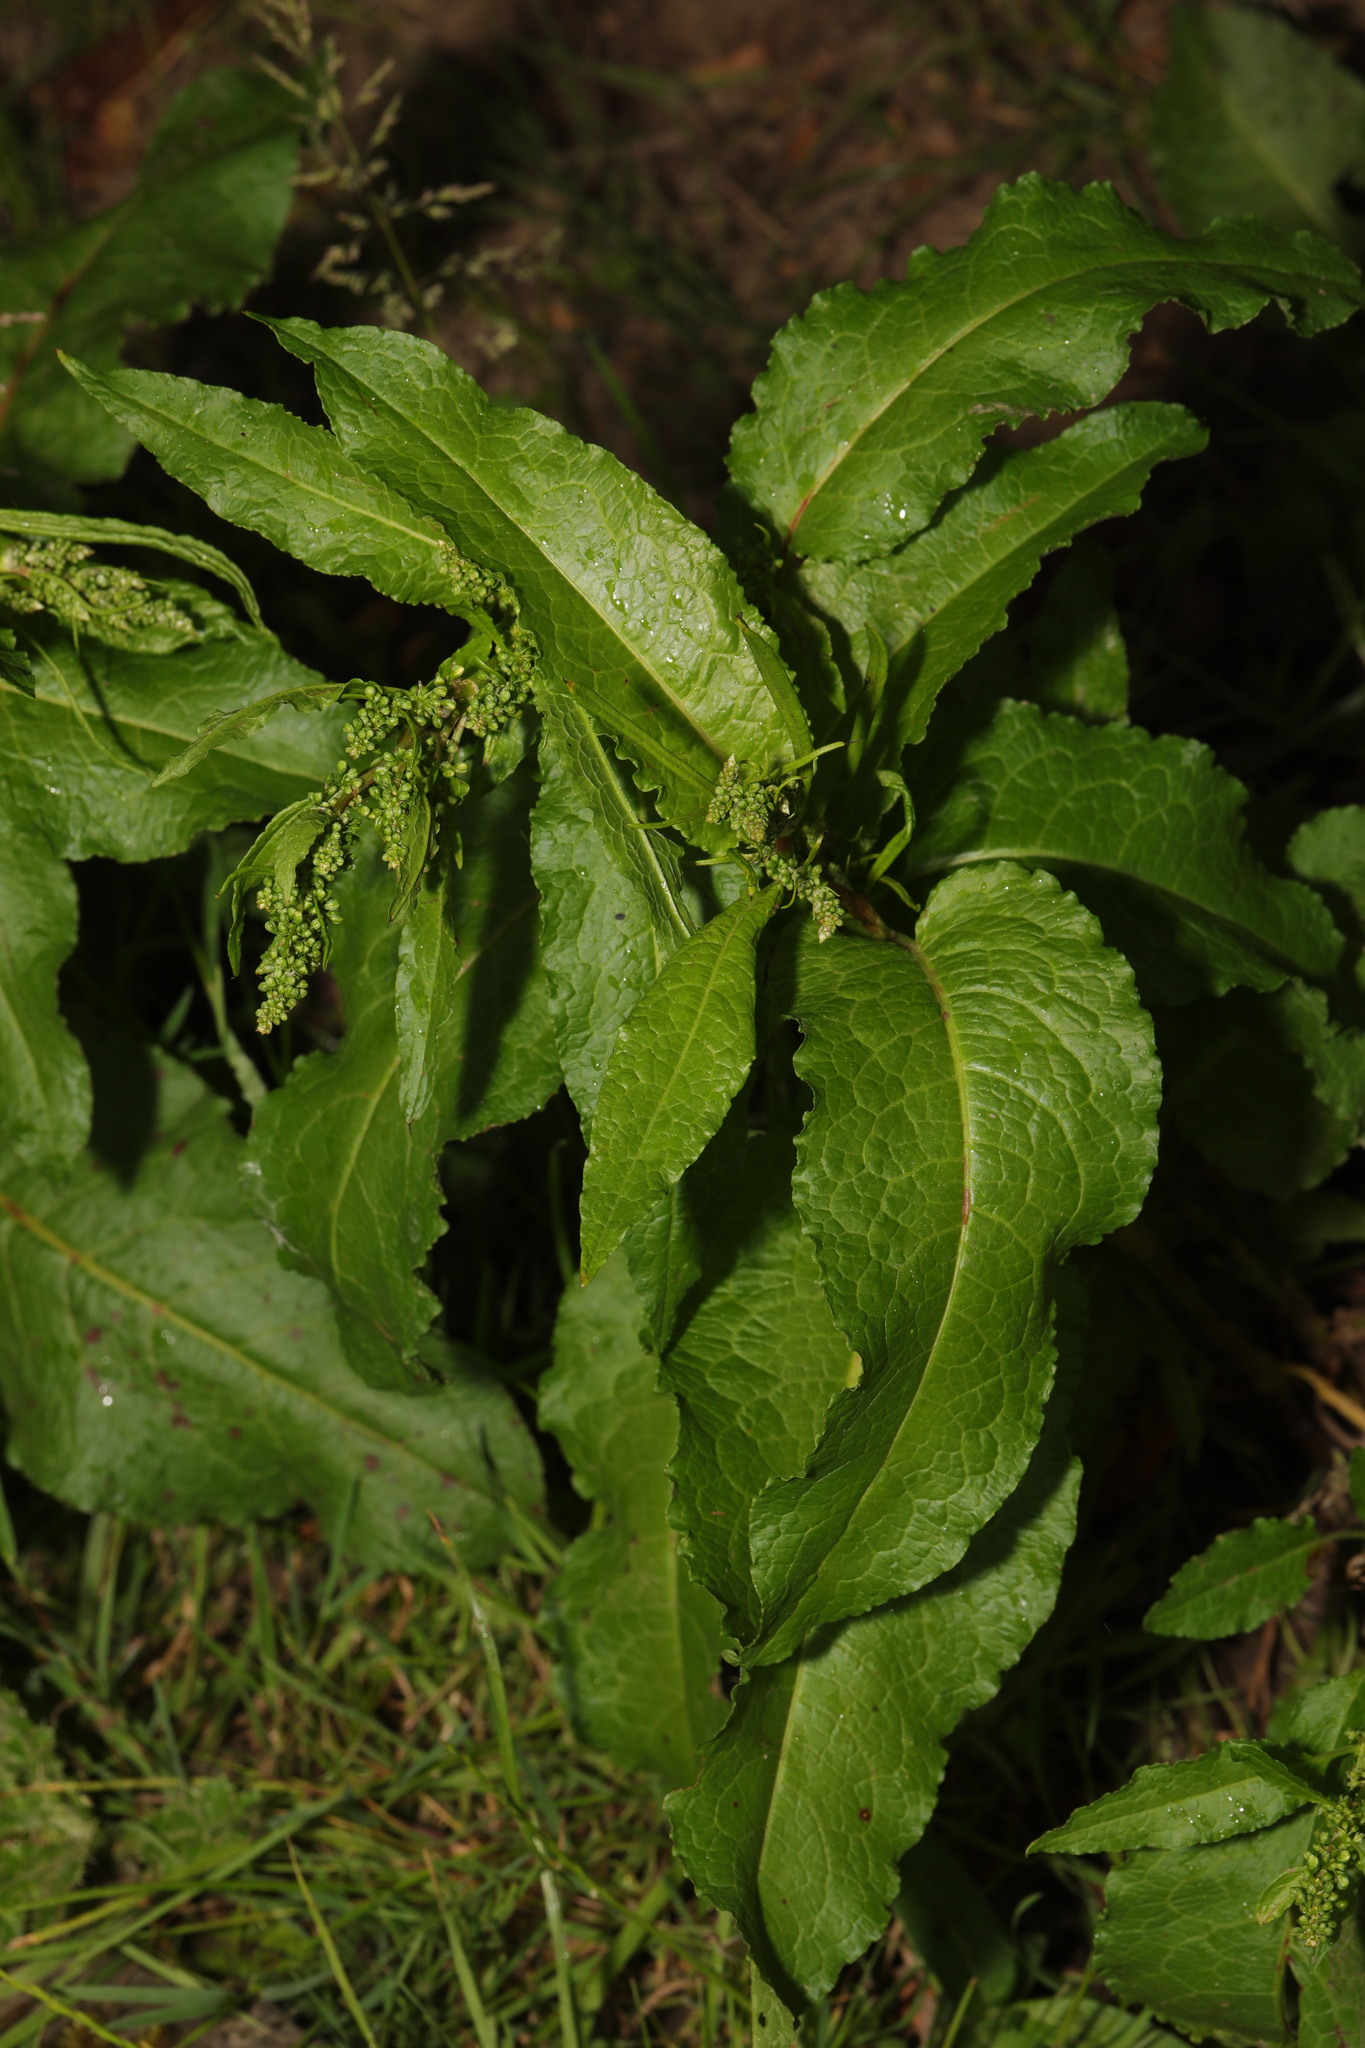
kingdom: Plantae
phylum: Tracheophyta
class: Magnoliopsida
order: Caryophyllales
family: Polygonaceae
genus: Rumex
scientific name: Rumex obtusifolius
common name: Bitter dock
